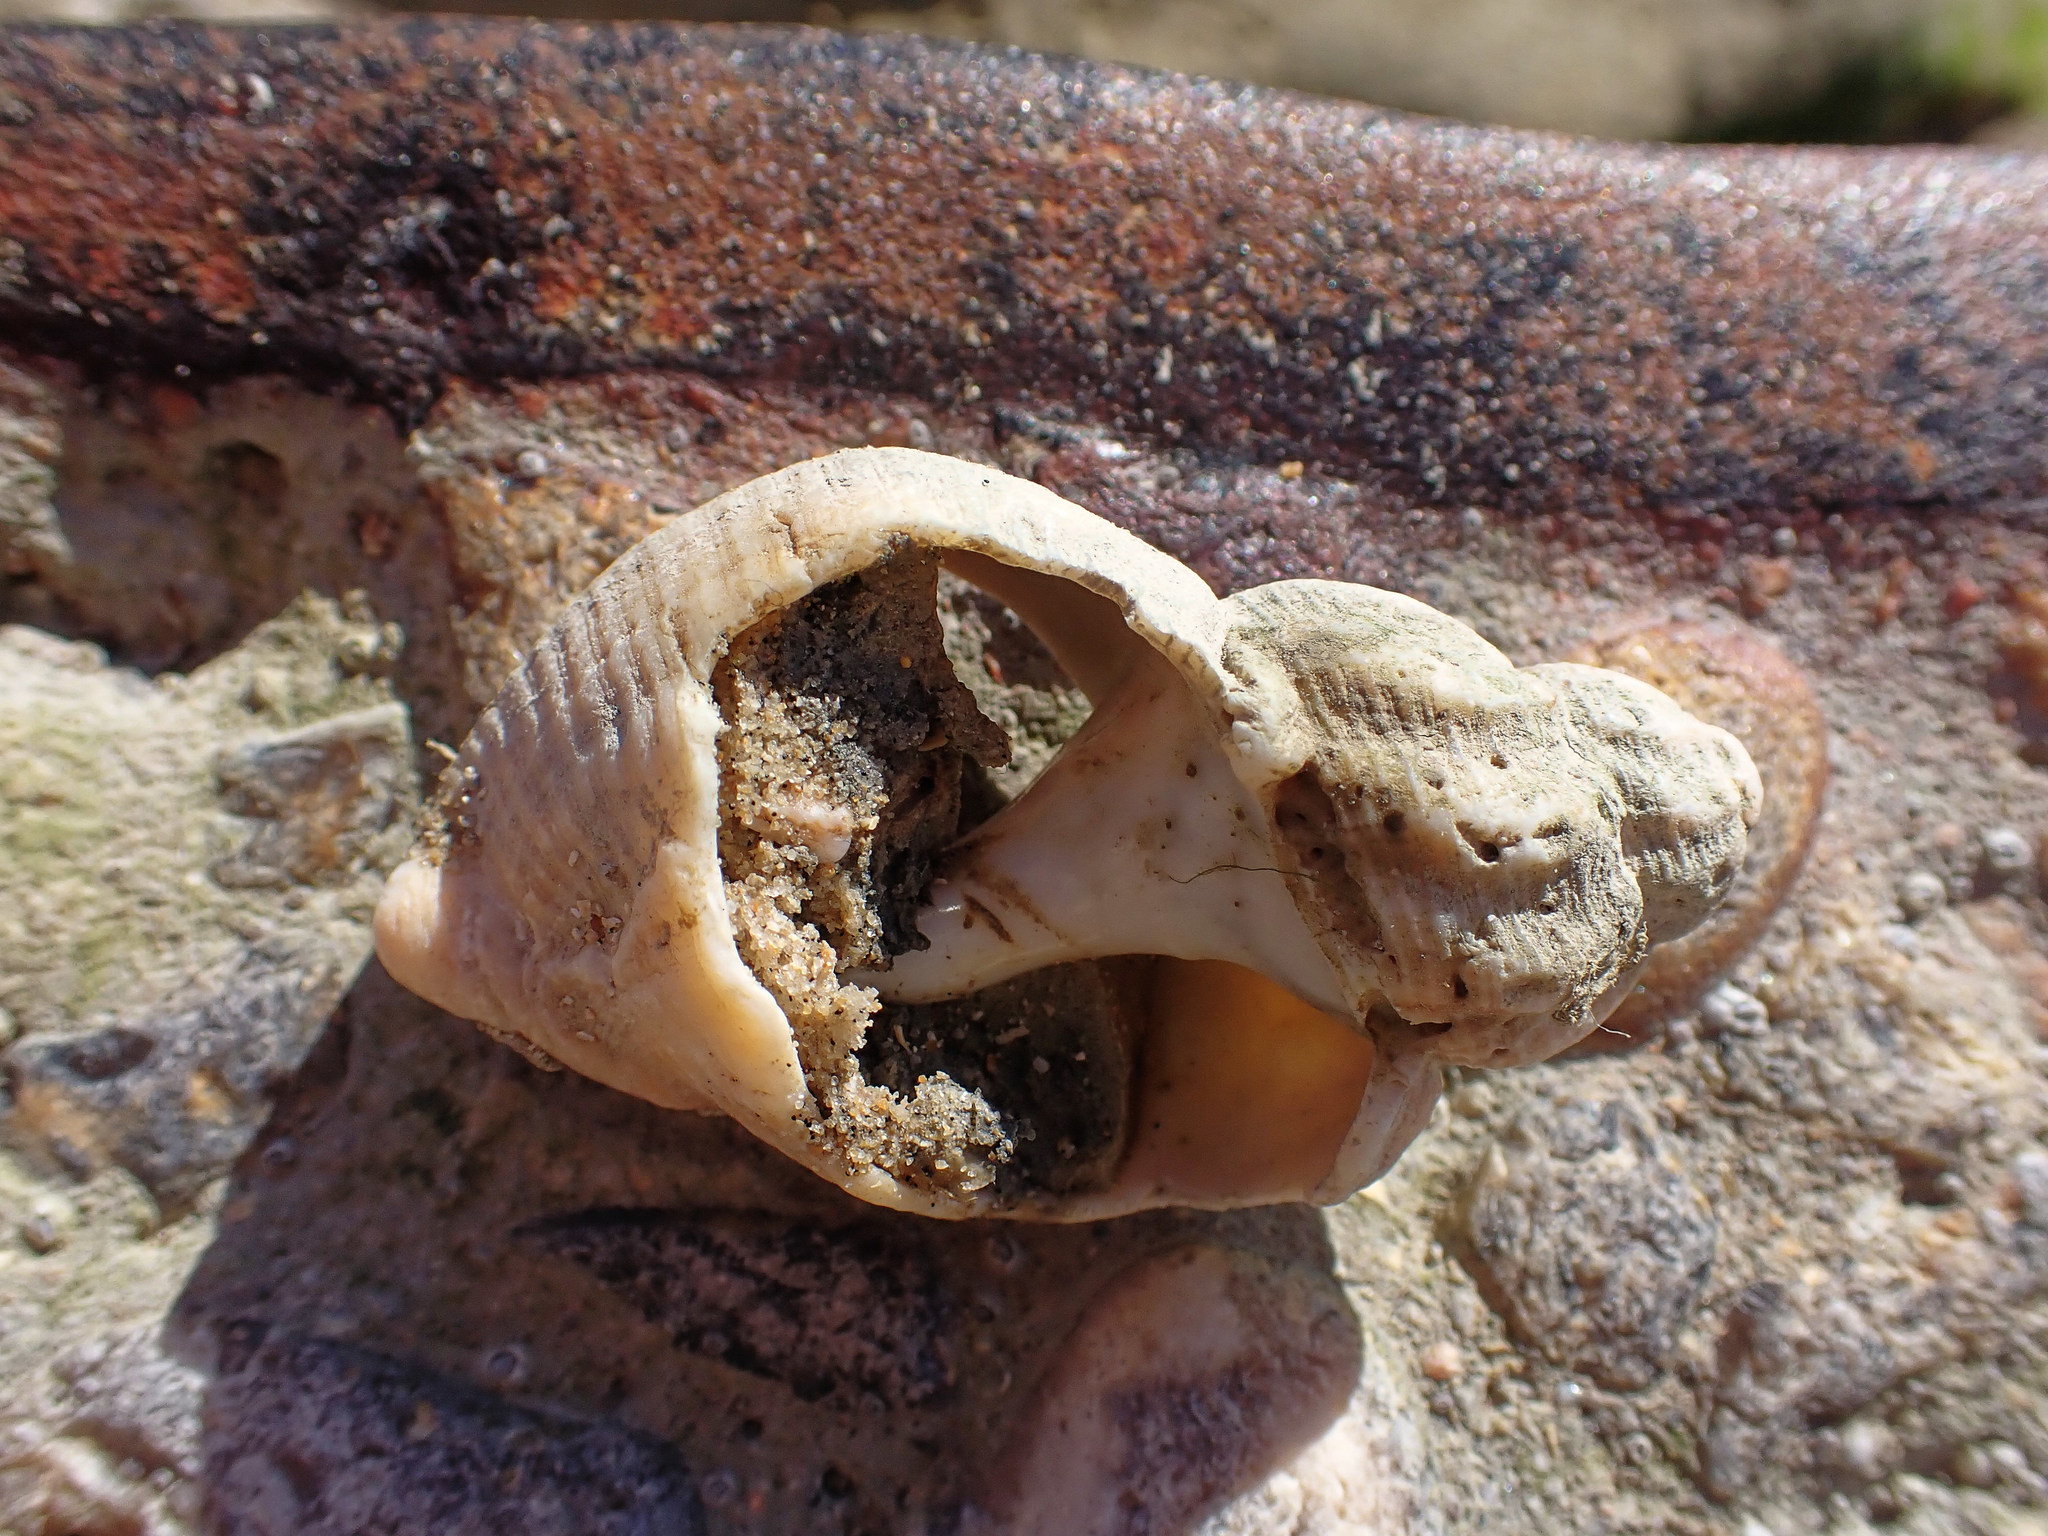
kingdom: Animalia
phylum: Mollusca
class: Gastropoda
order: Neogastropoda
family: Buccinidae
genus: Buccinum
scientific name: Buccinum undatum
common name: Common whelk
